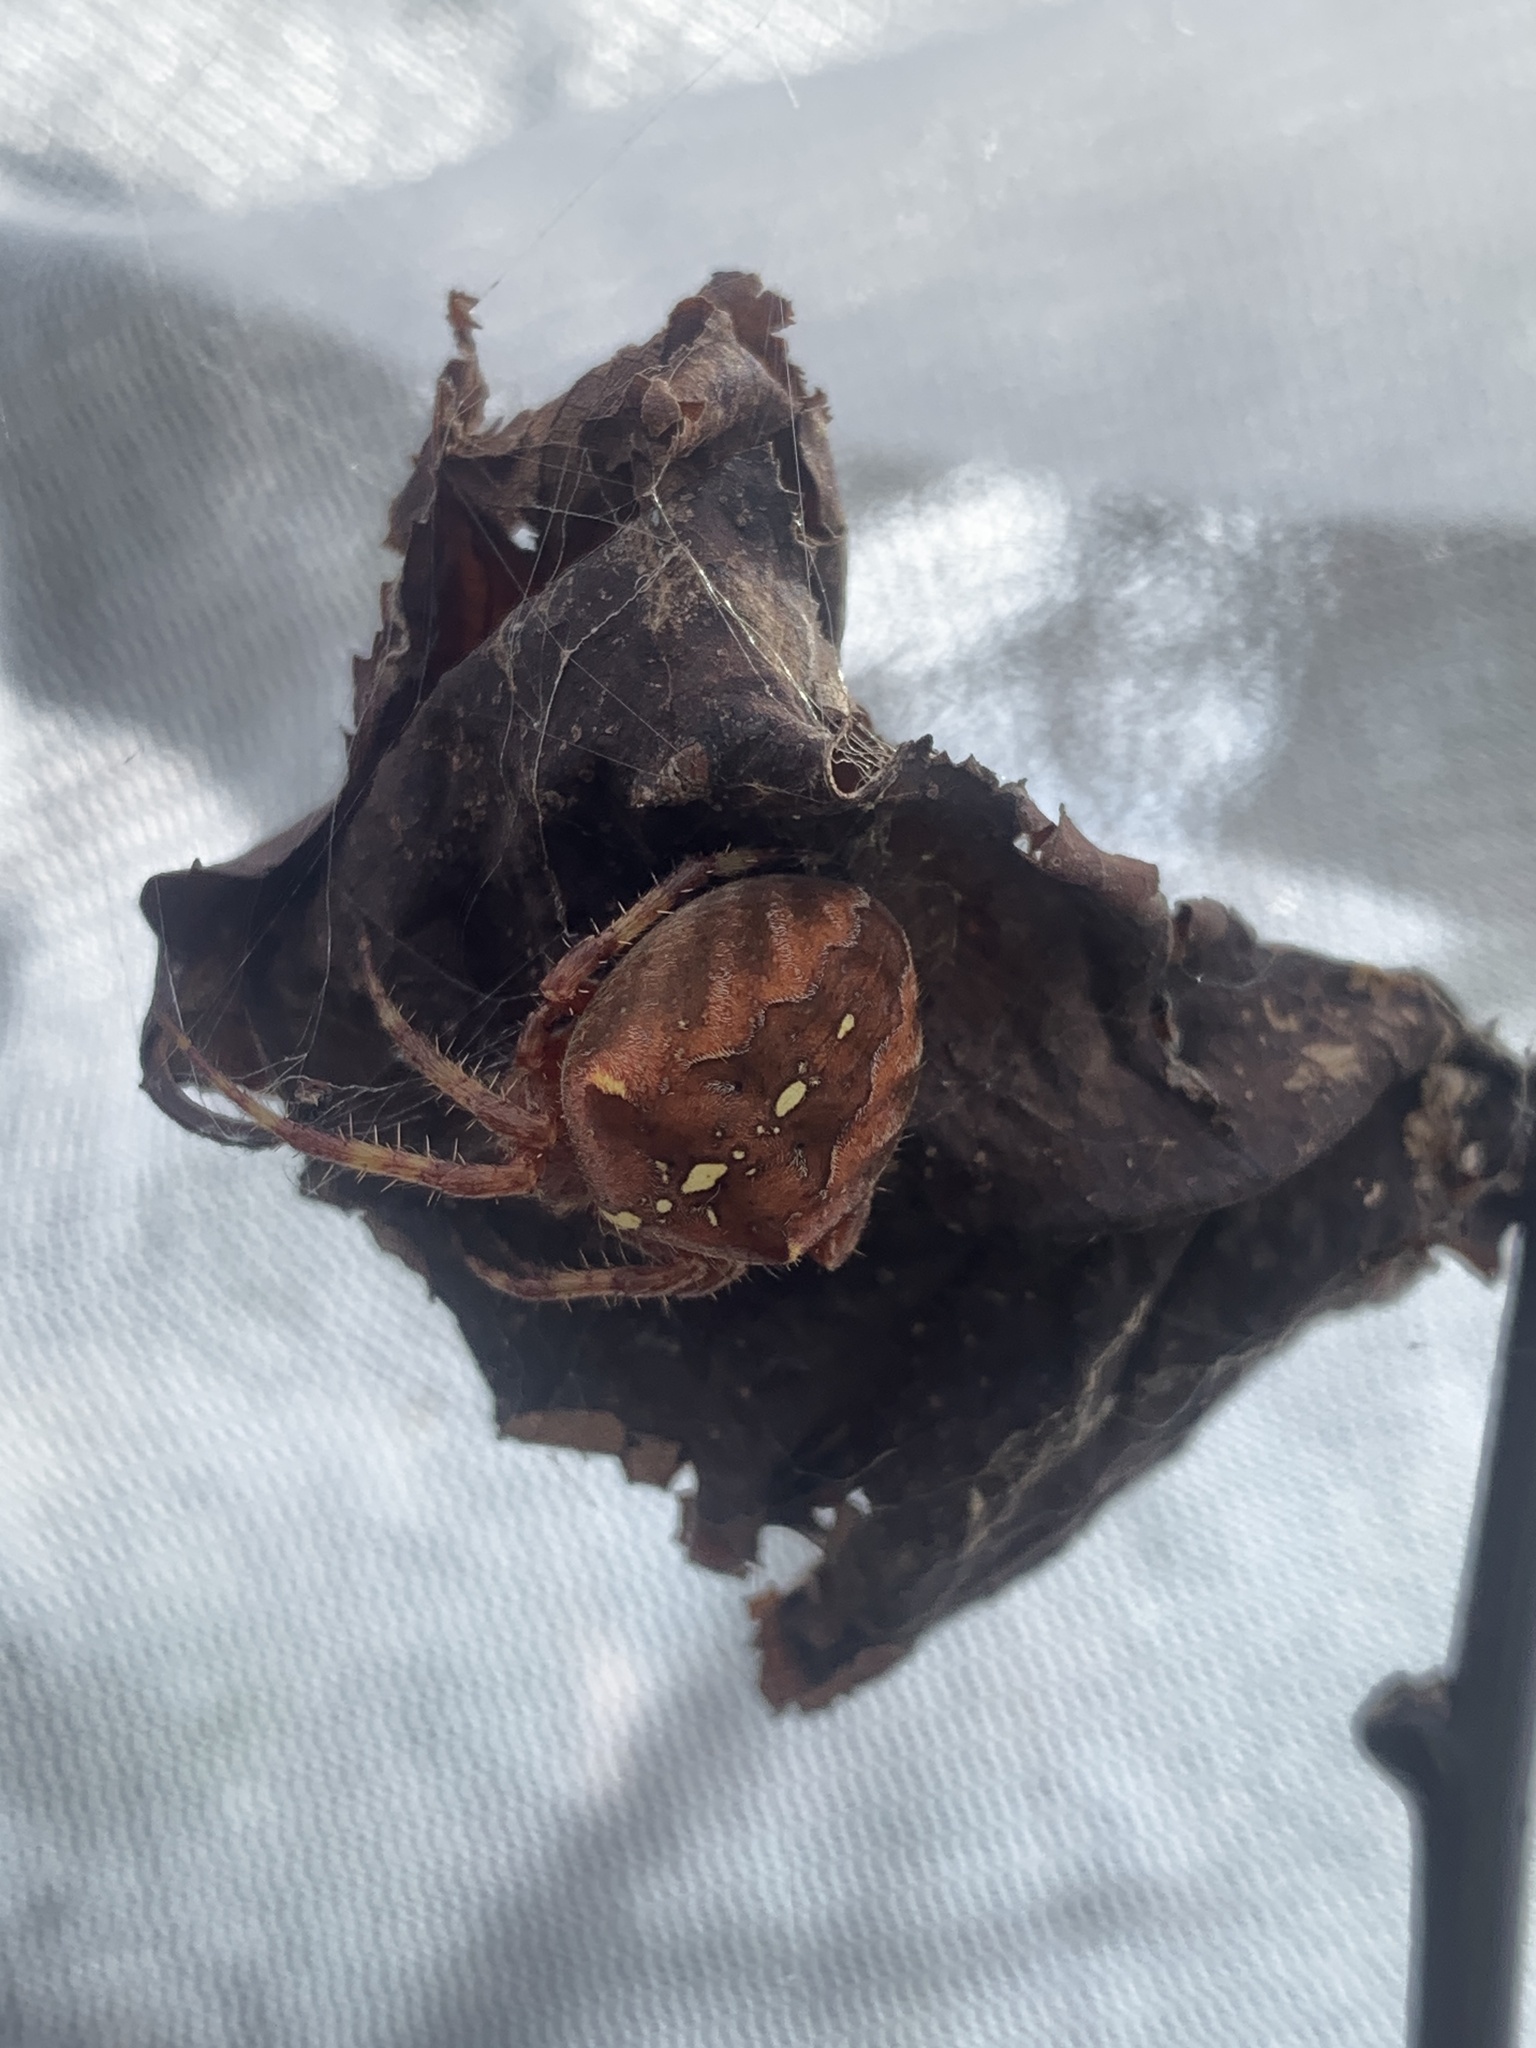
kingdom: Animalia
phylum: Arthropoda
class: Arachnida
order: Araneae
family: Araneidae
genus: Araneus
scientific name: Araneus diadematus
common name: Cross orbweaver
